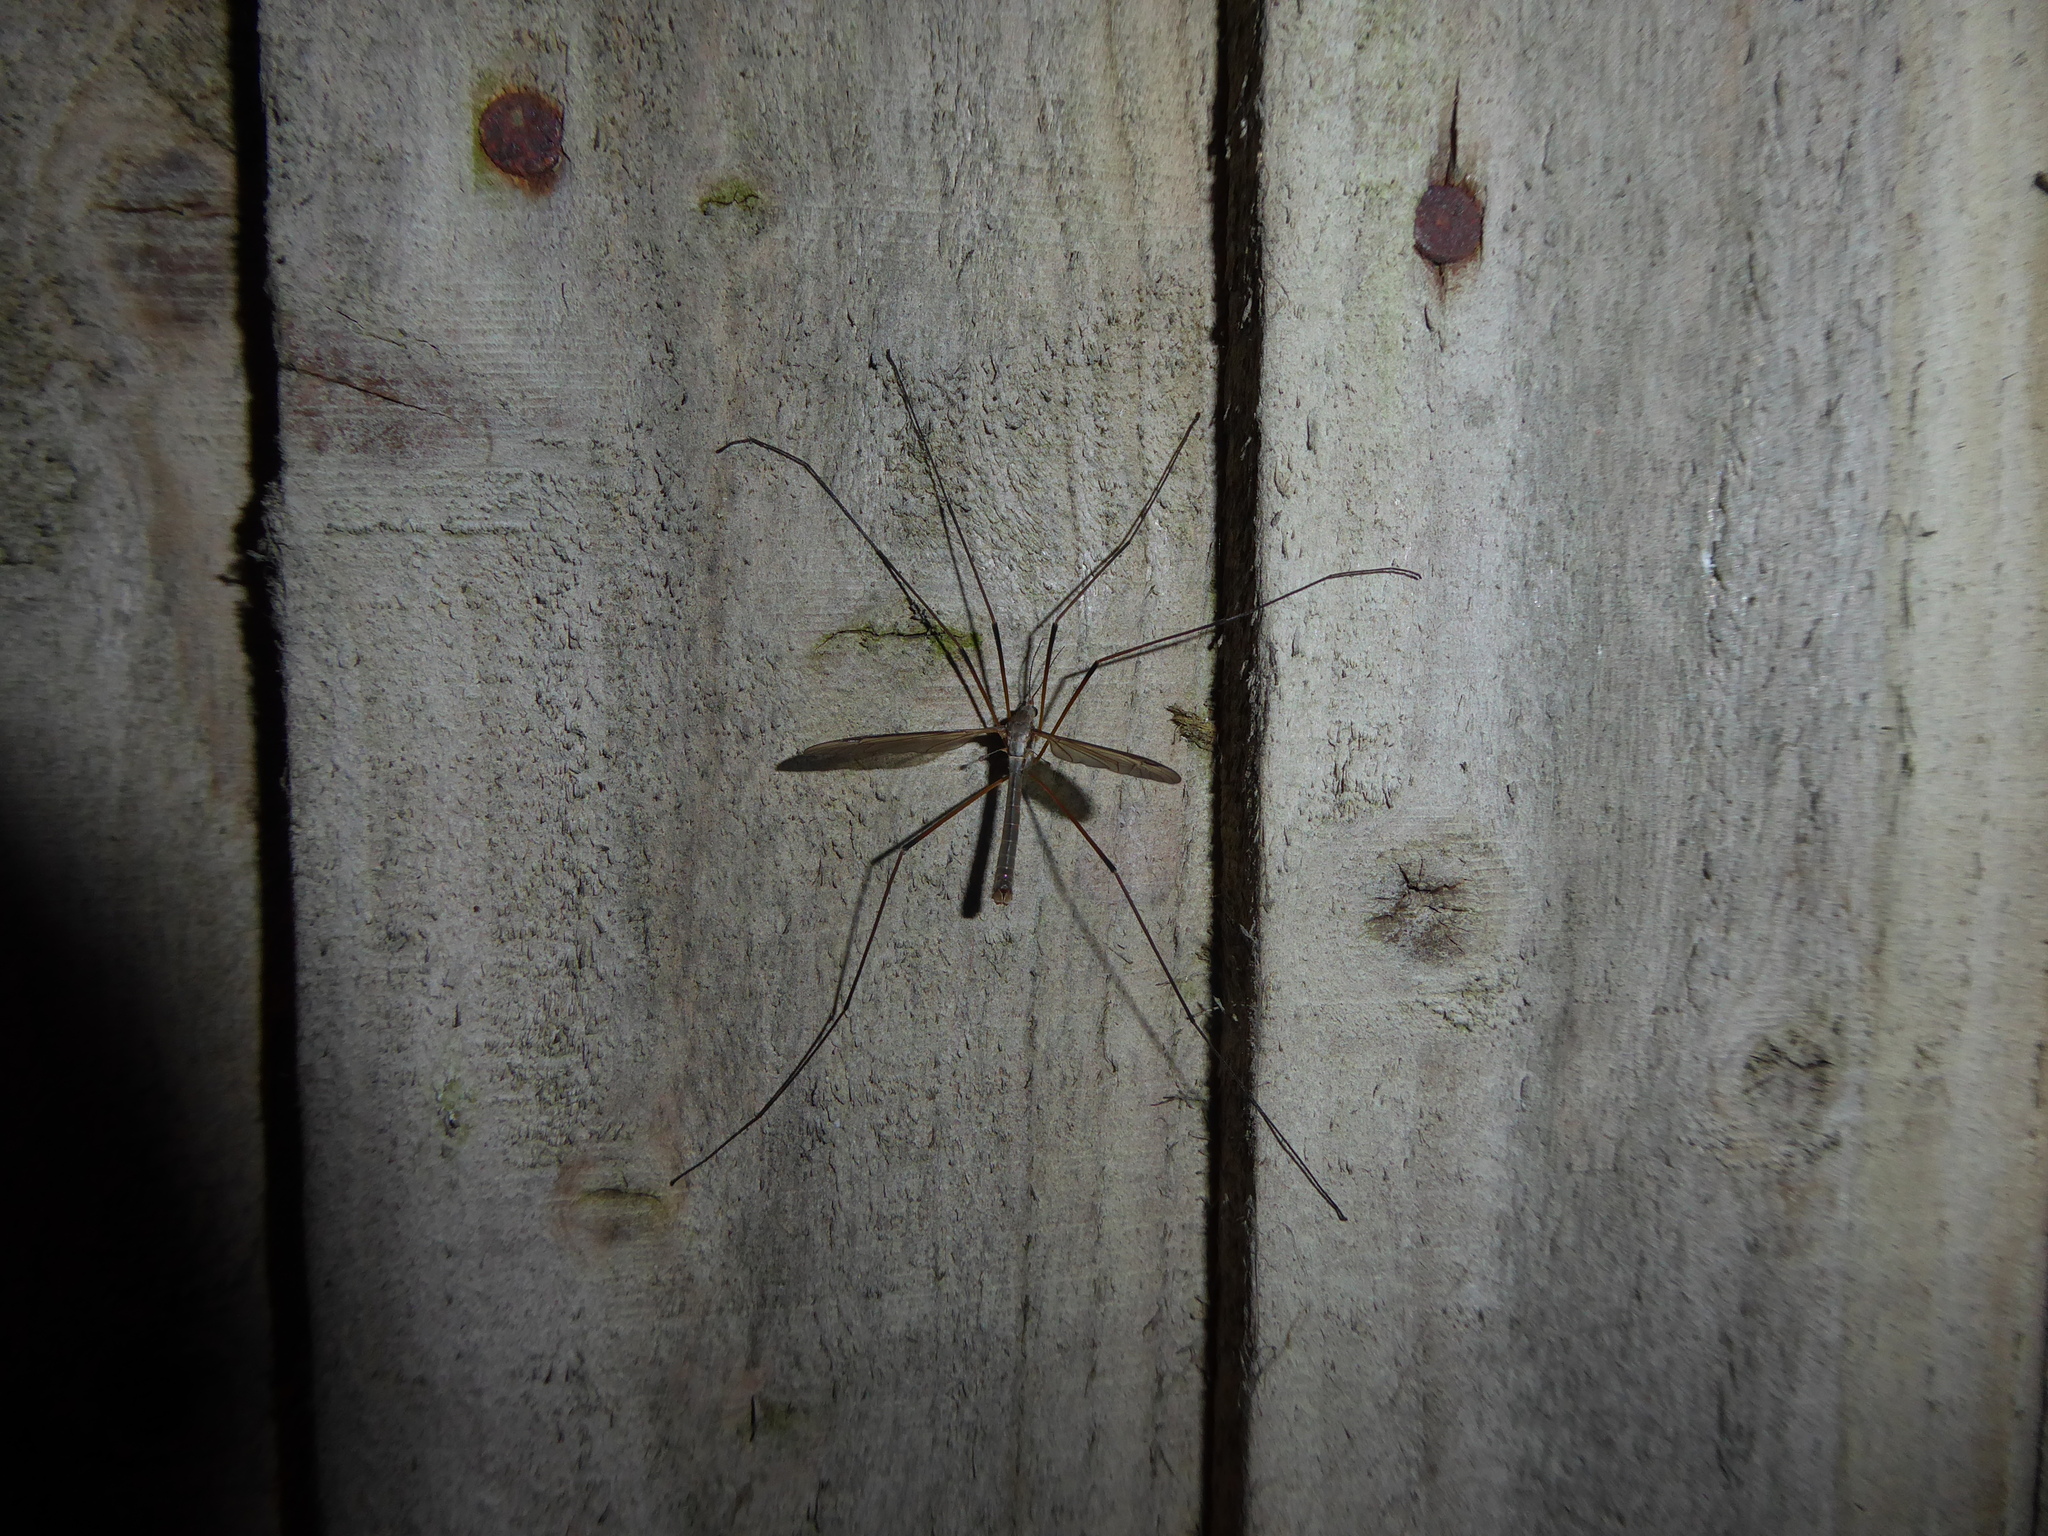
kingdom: Animalia
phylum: Arthropoda
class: Insecta
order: Diptera
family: Tipulidae
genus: Tipula
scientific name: Tipula paludosa
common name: European cranefly
